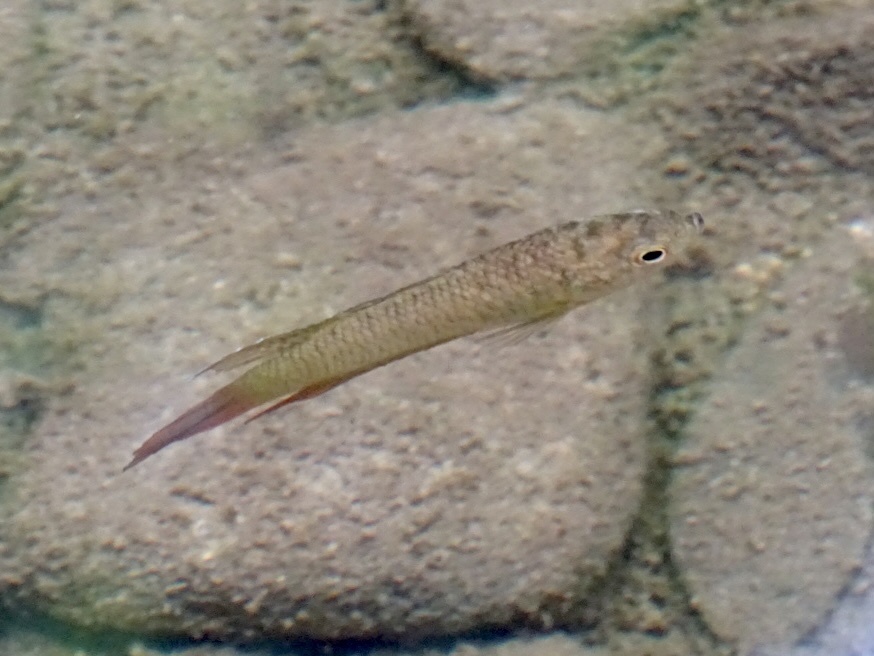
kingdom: Animalia
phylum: Chordata
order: Perciformes
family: Osphronemidae
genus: Macropodus
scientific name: Macropodus hongkongensis
